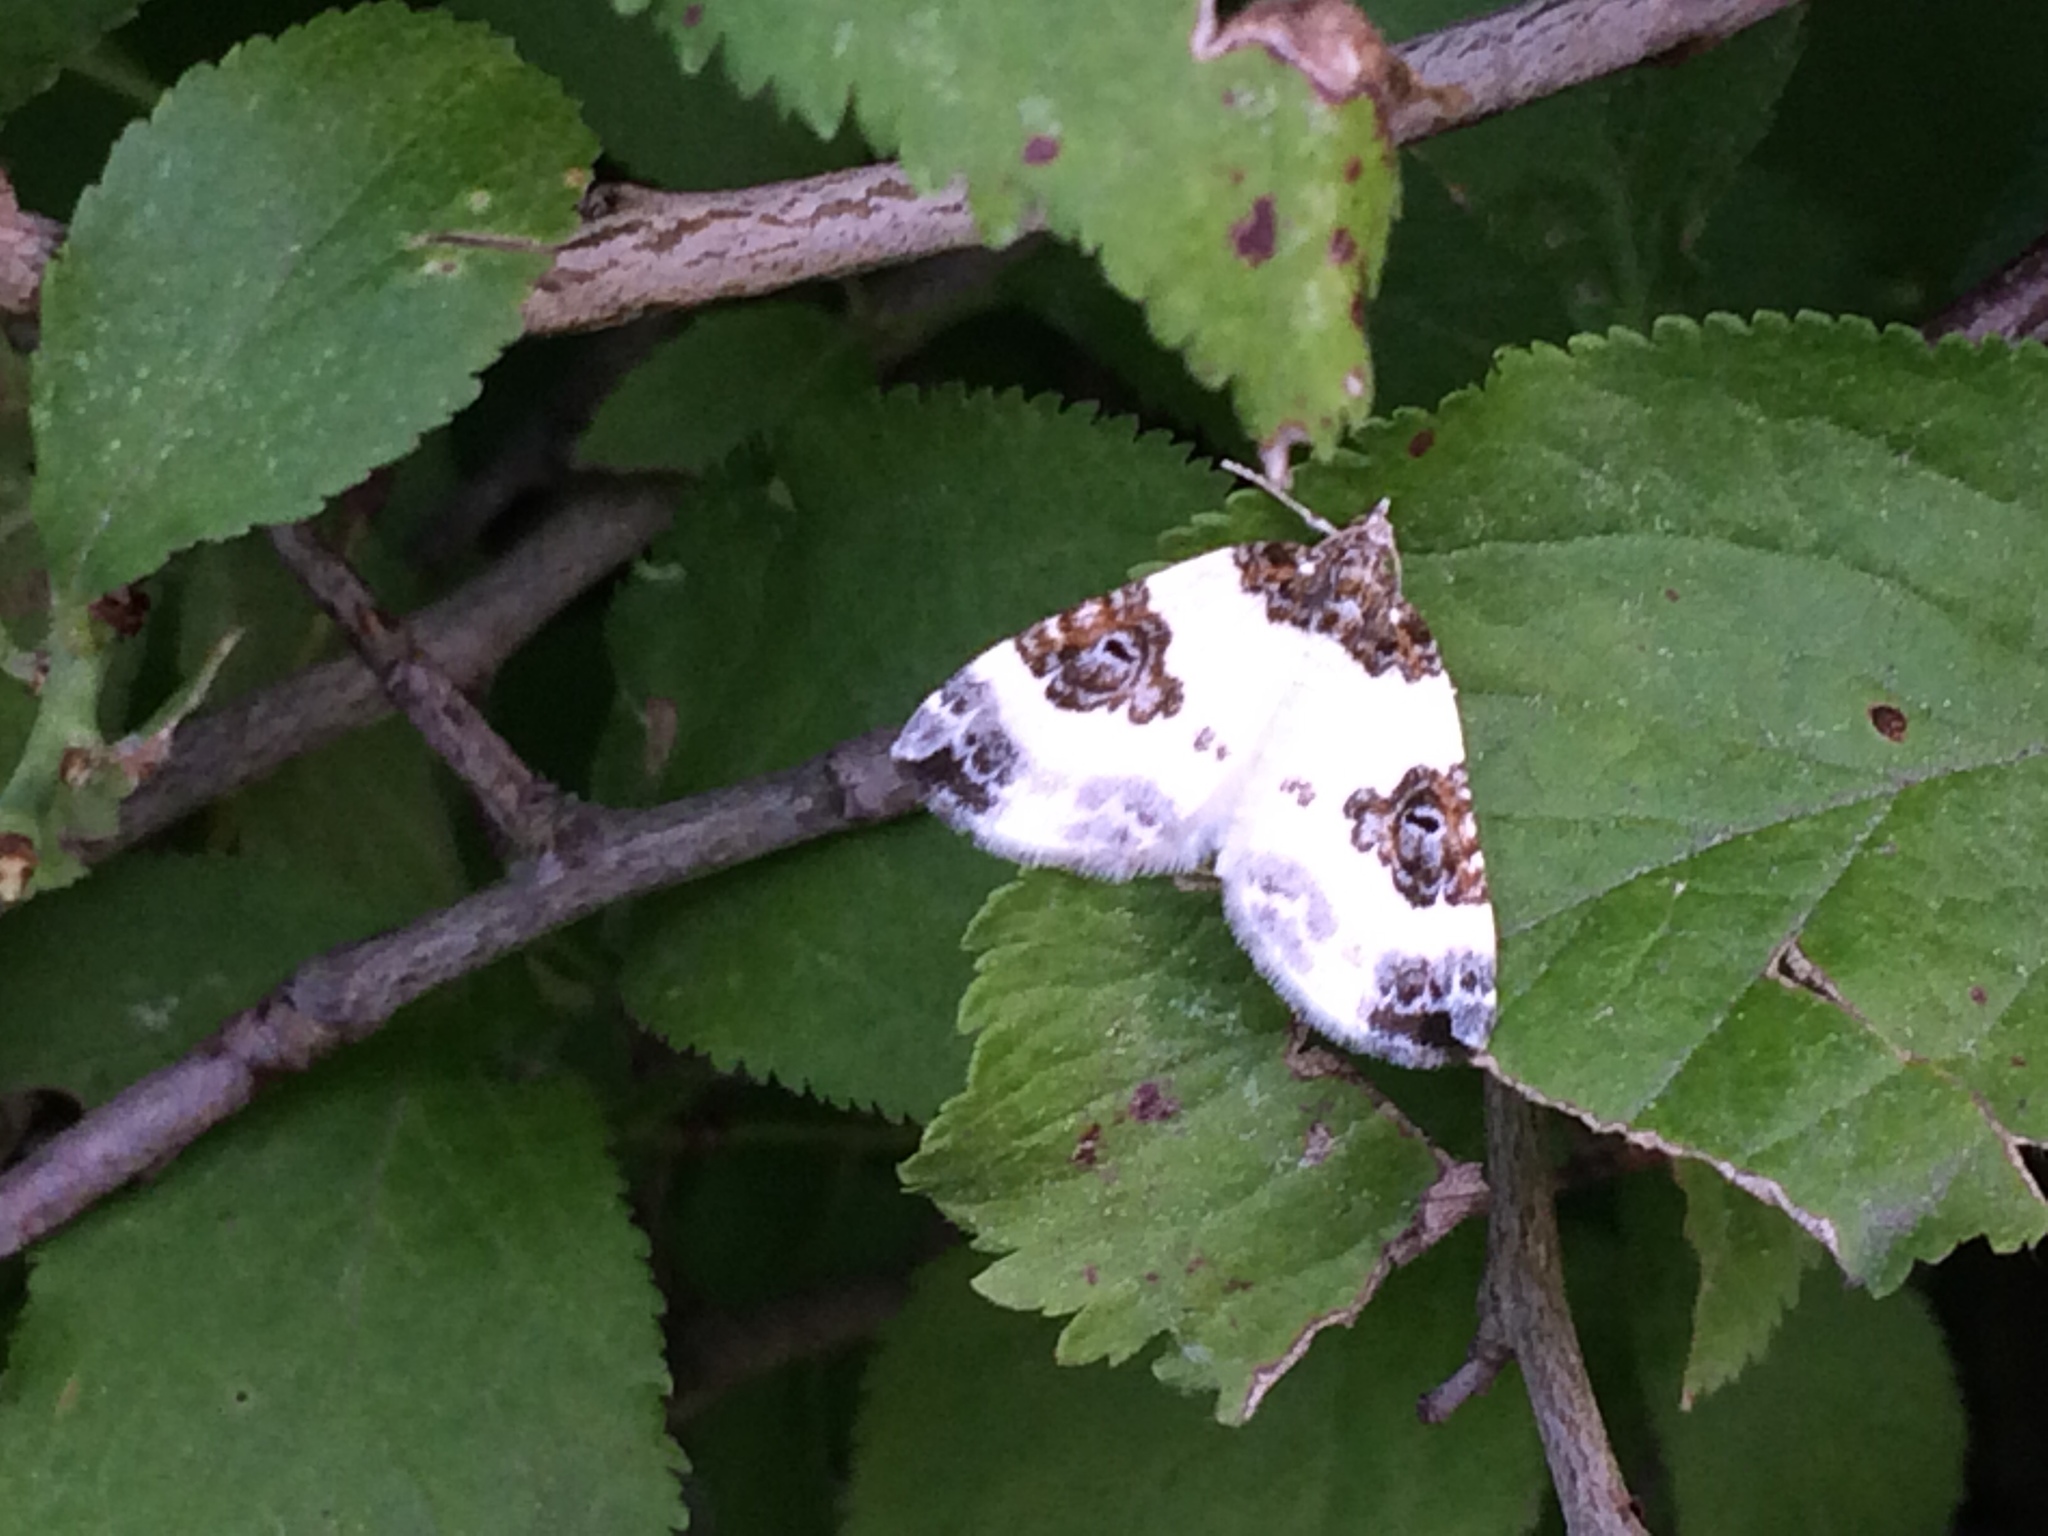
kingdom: Animalia
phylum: Arthropoda
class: Insecta
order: Lepidoptera
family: Geometridae
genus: Plemyria
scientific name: Plemyria rubiginata
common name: Blue-bordered carpet
